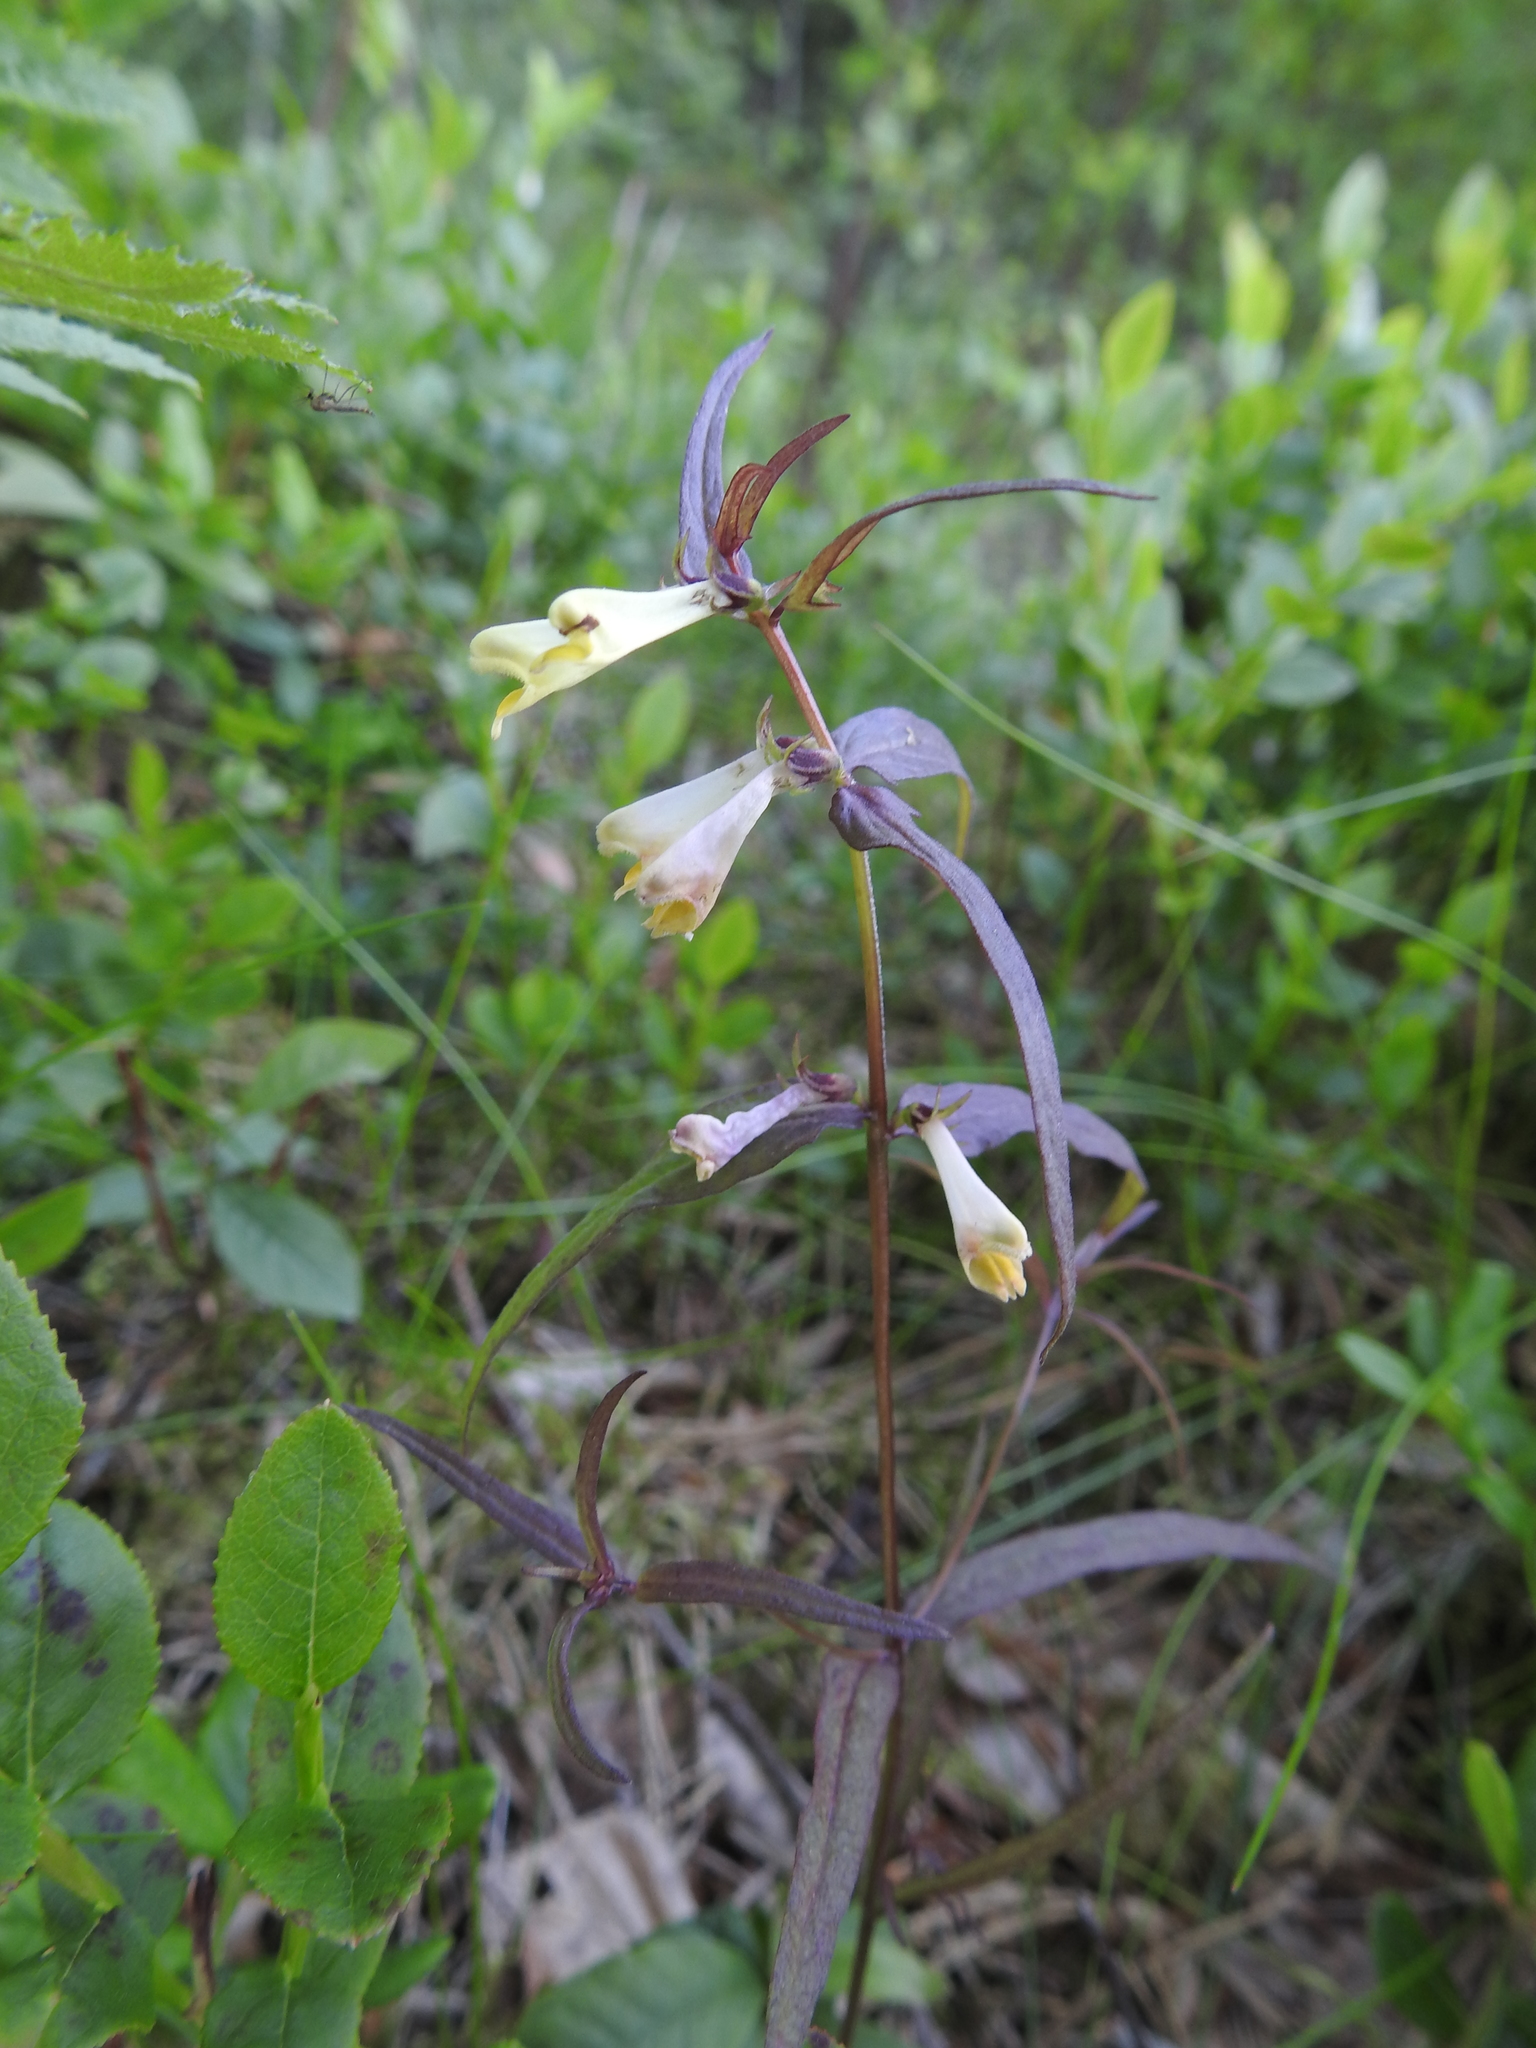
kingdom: Plantae
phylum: Tracheophyta
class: Magnoliopsida
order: Lamiales
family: Orobanchaceae
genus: Melampyrum
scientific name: Melampyrum pratense
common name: Common cow-wheat
